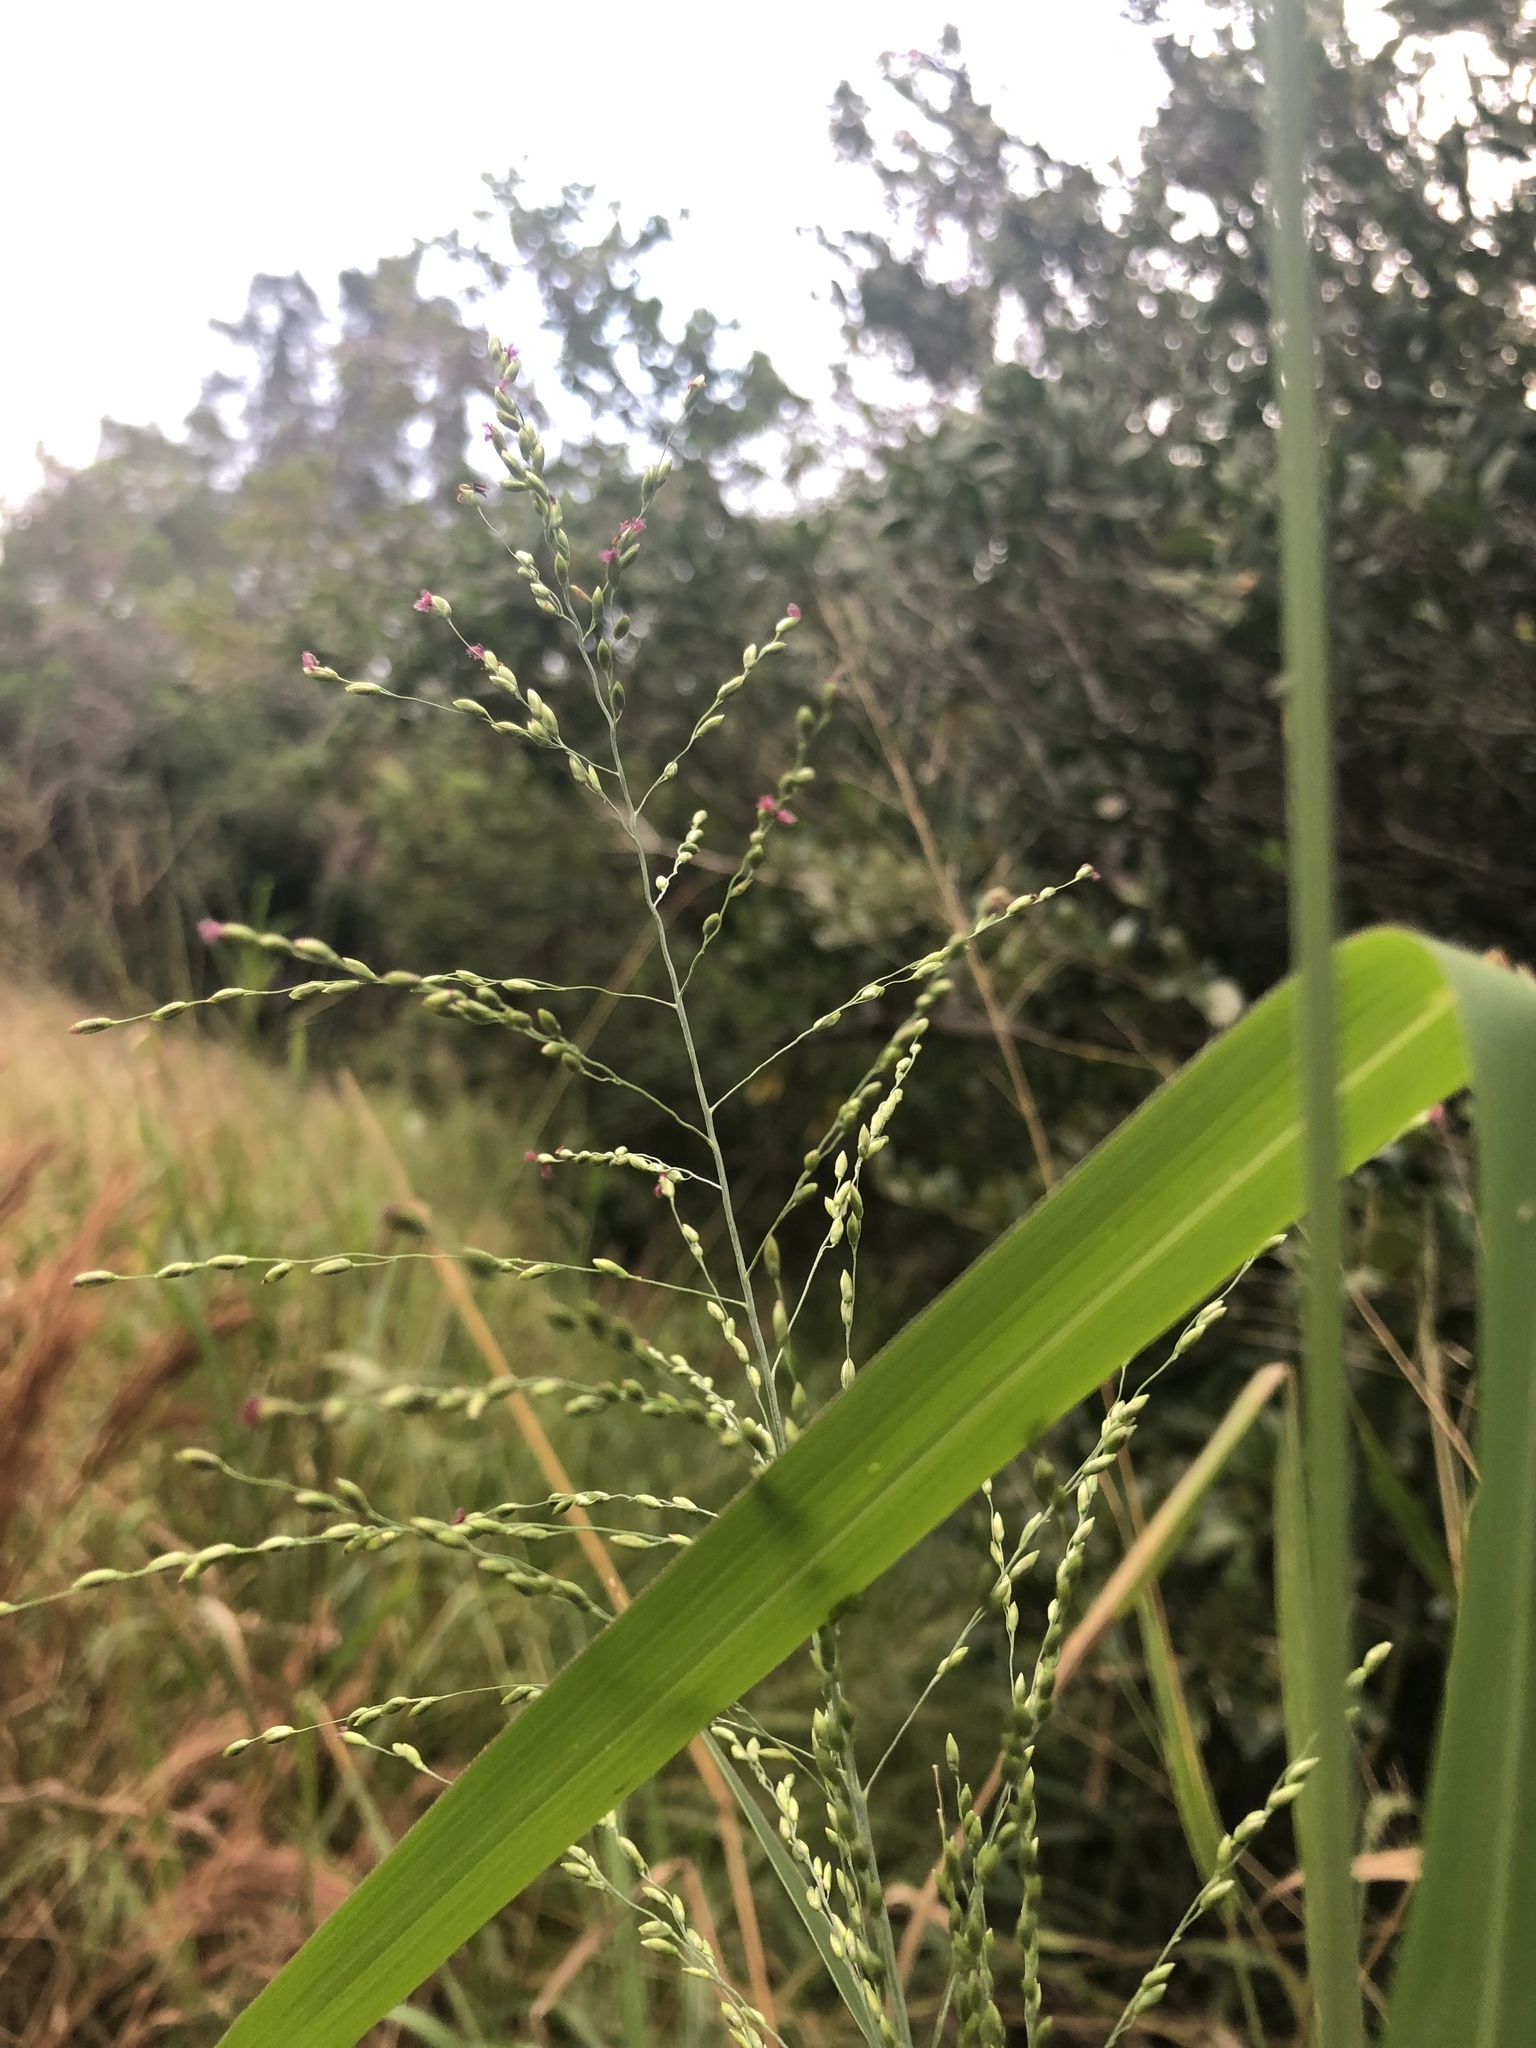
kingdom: Plantae
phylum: Tracheophyta
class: Liliopsida
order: Poales
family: Poaceae
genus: Megathyrsus
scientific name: Megathyrsus maximus
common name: Guineagrass
